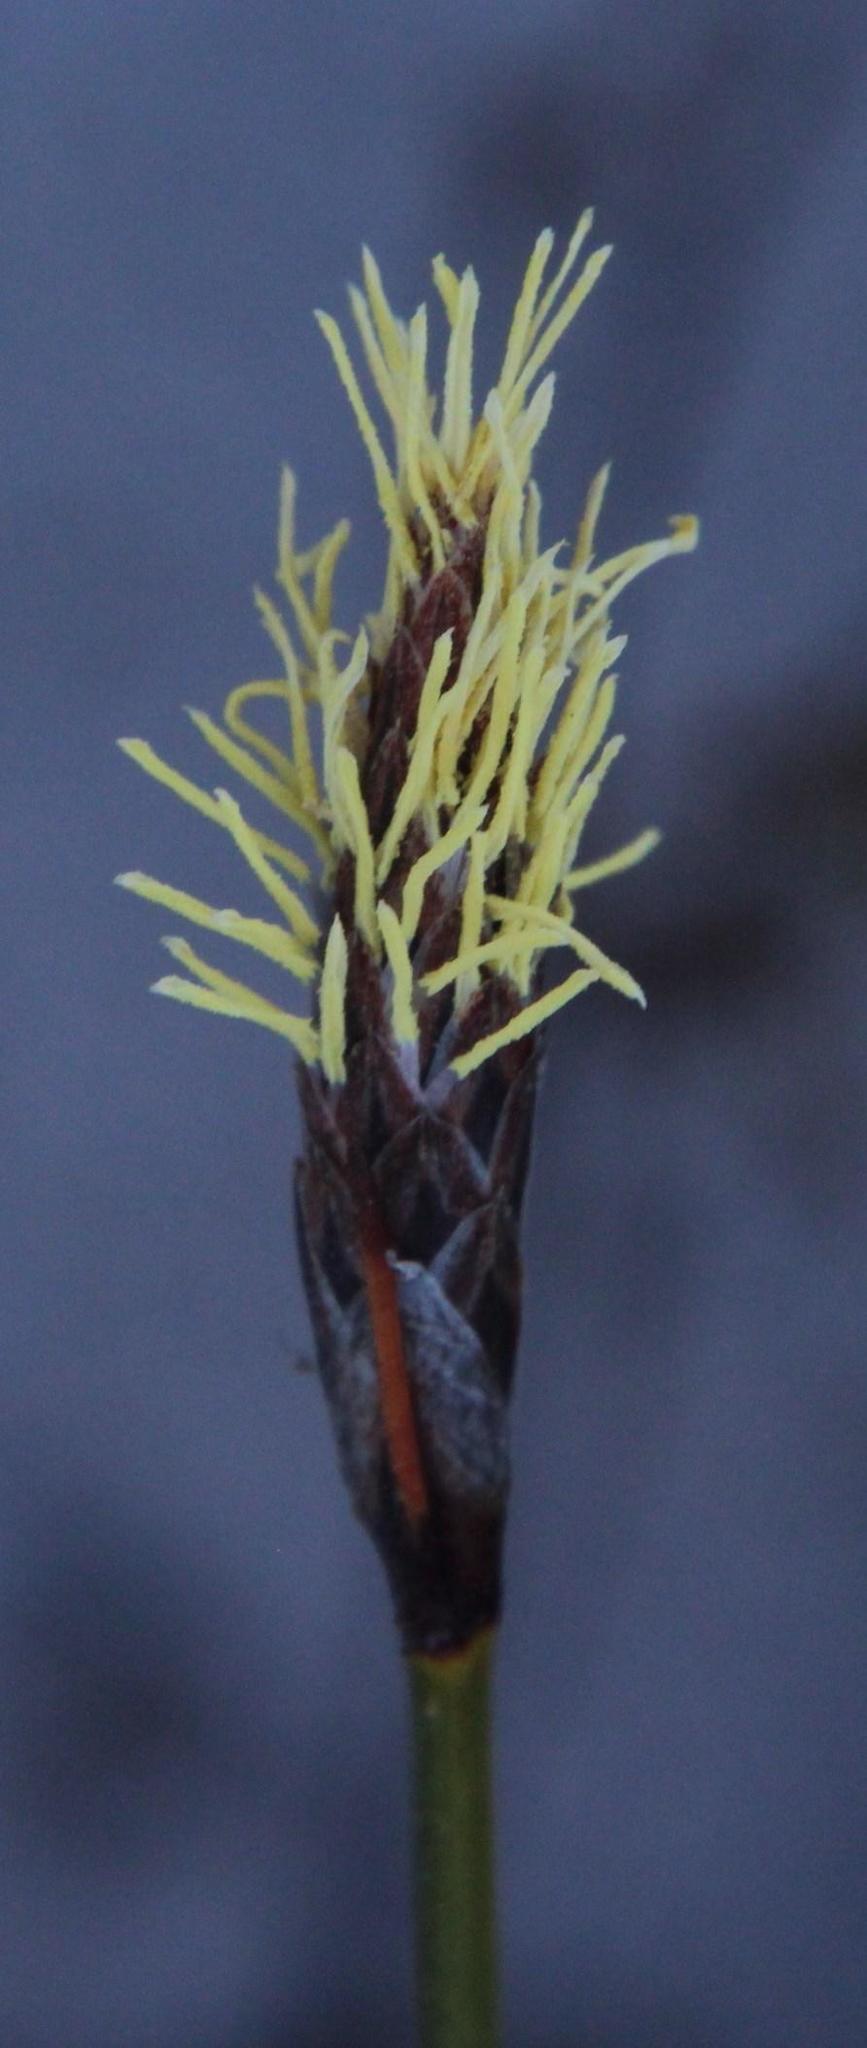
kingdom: Plantae
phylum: Tracheophyta
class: Liliopsida
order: Poales
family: Cyperaceae
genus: Ficinia
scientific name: Ficinia deusta
